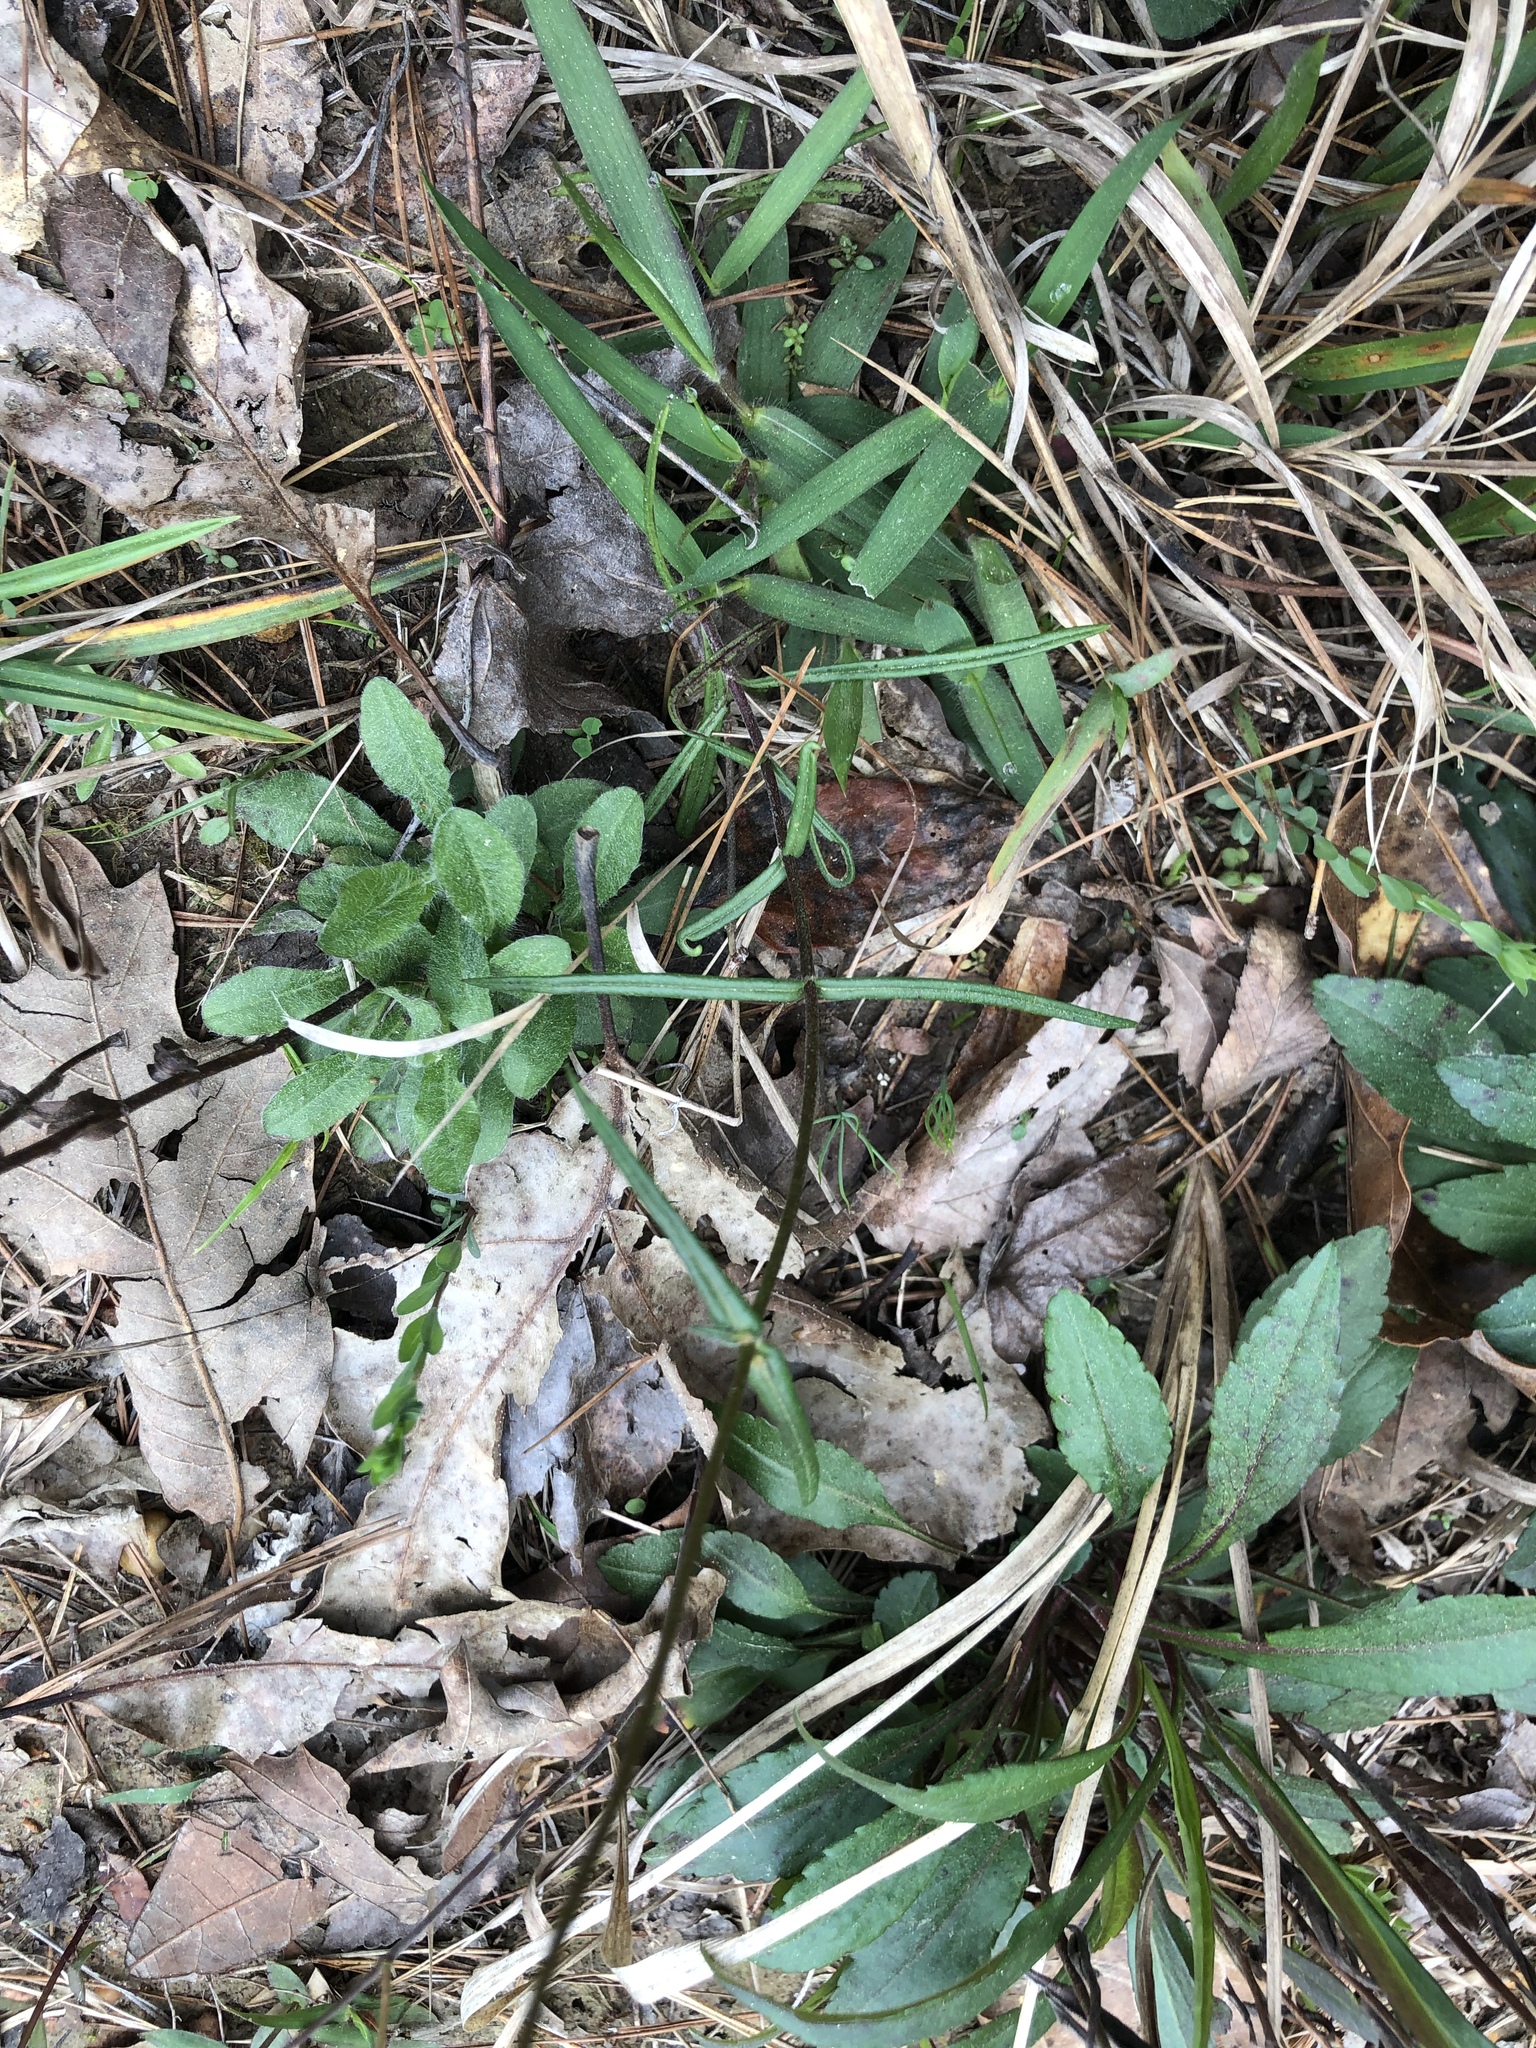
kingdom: Plantae
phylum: Tracheophyta
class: Magnoliopsida
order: Ericales
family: Polemoniaceae
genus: Phlox
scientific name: Phlox pilosa
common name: Prairie phlox
